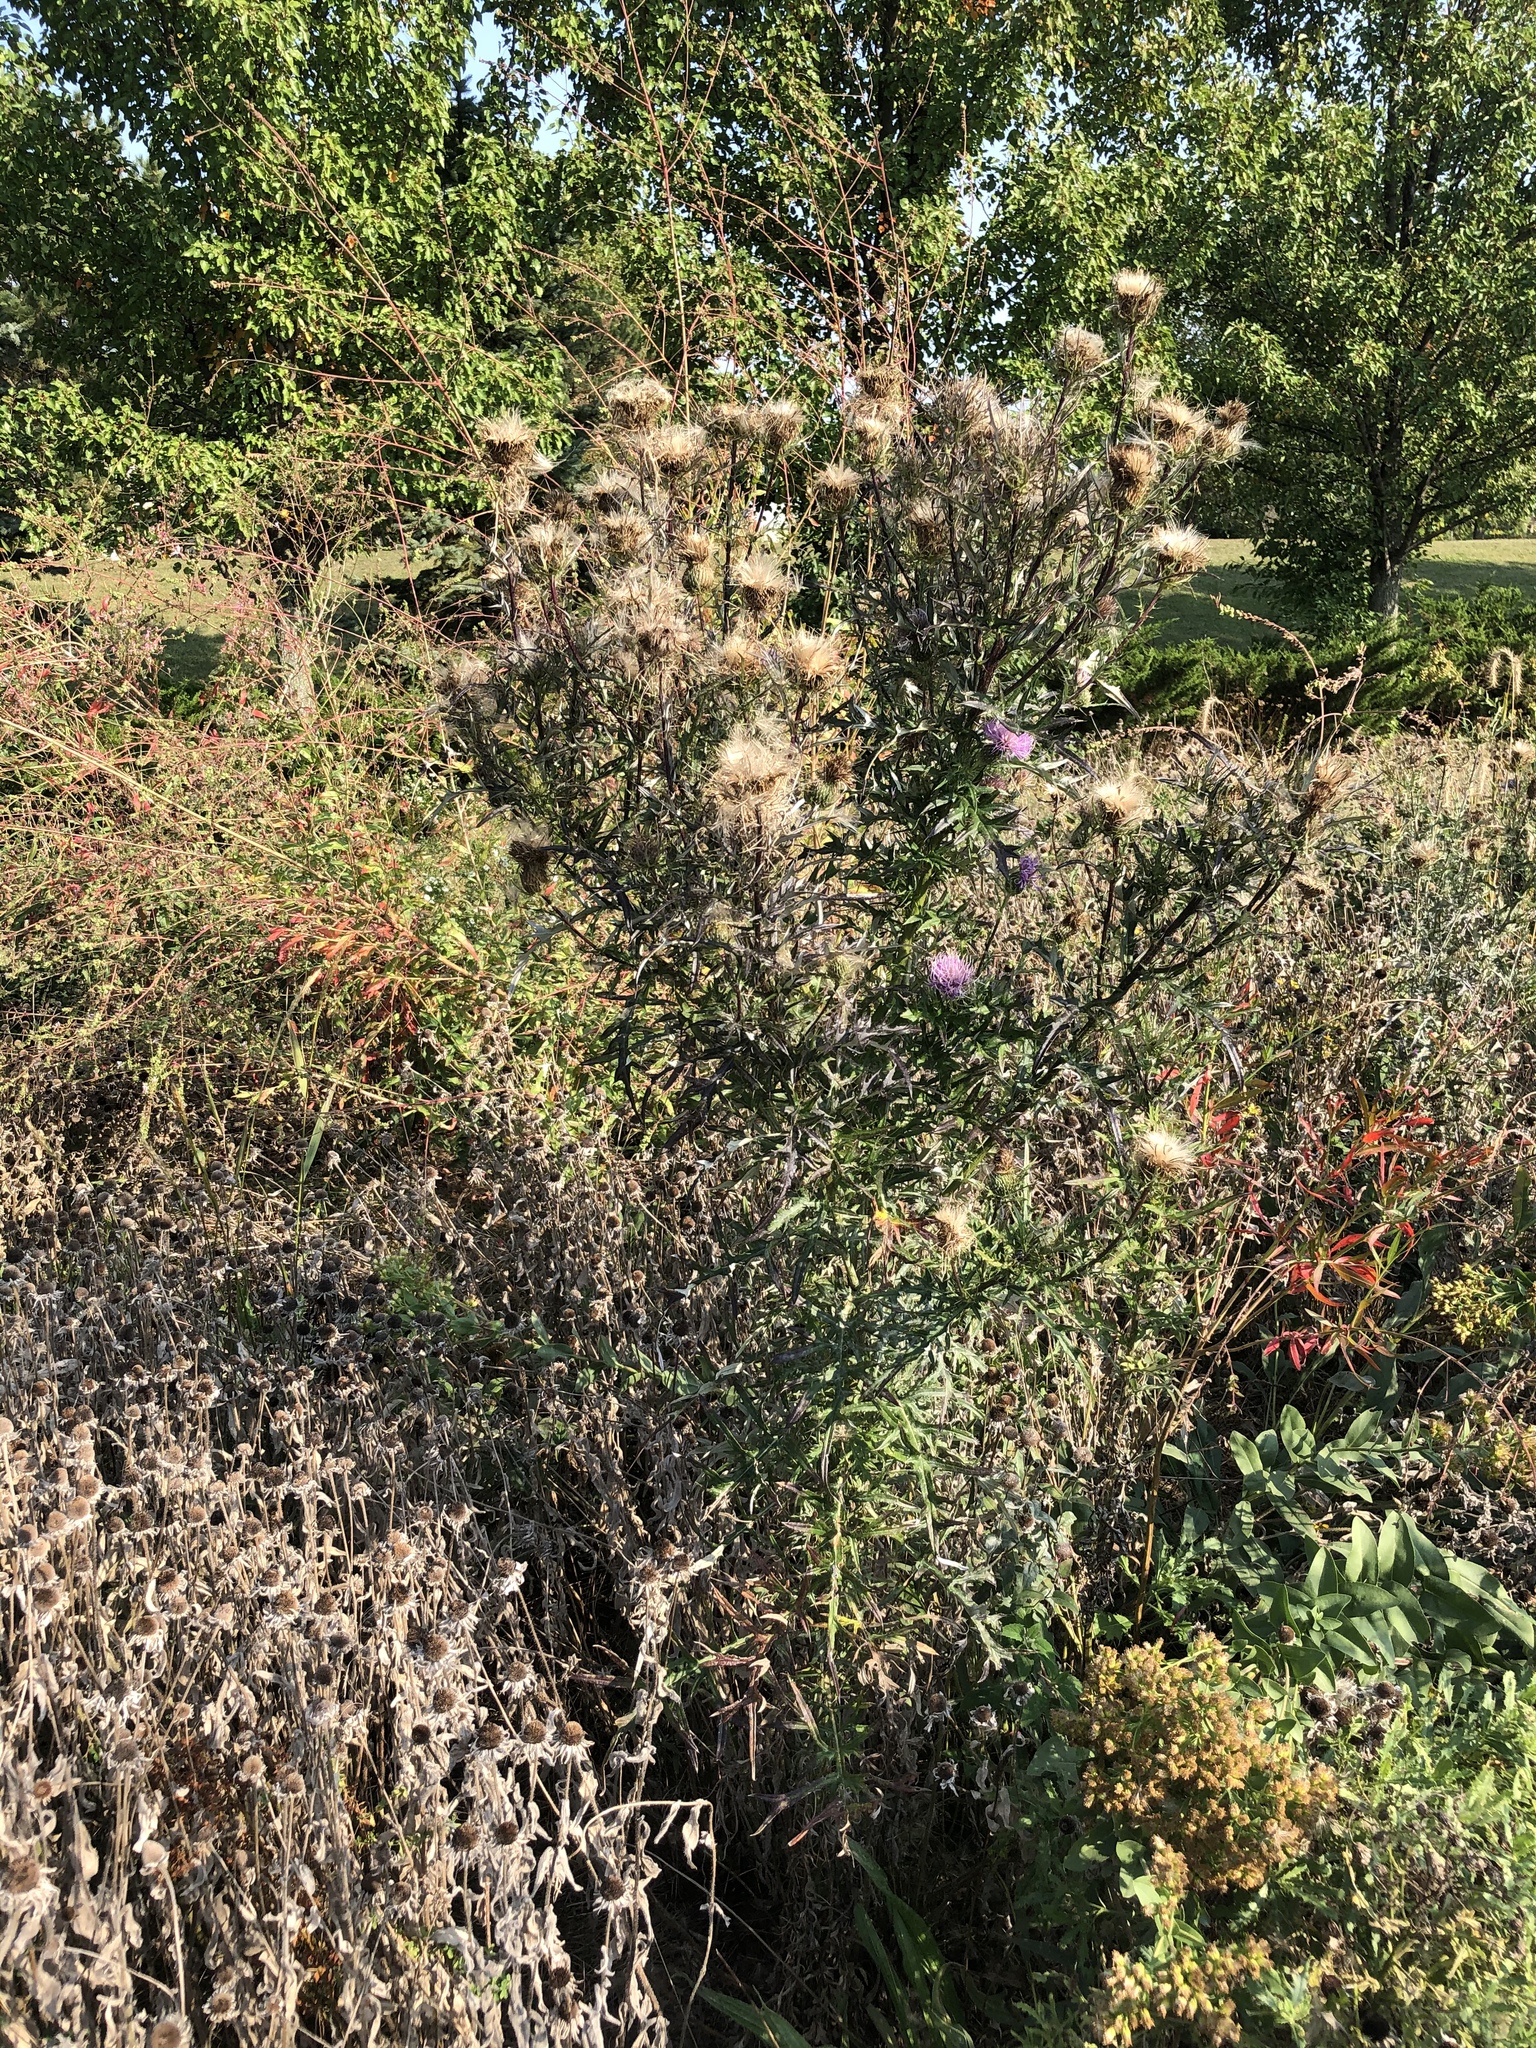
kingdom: Plantae
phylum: Tracheophyta
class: Magnoliopsida
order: Asterales
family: Asteraceae
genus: Cirsium
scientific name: Cirsium discolor
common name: Field thistle
